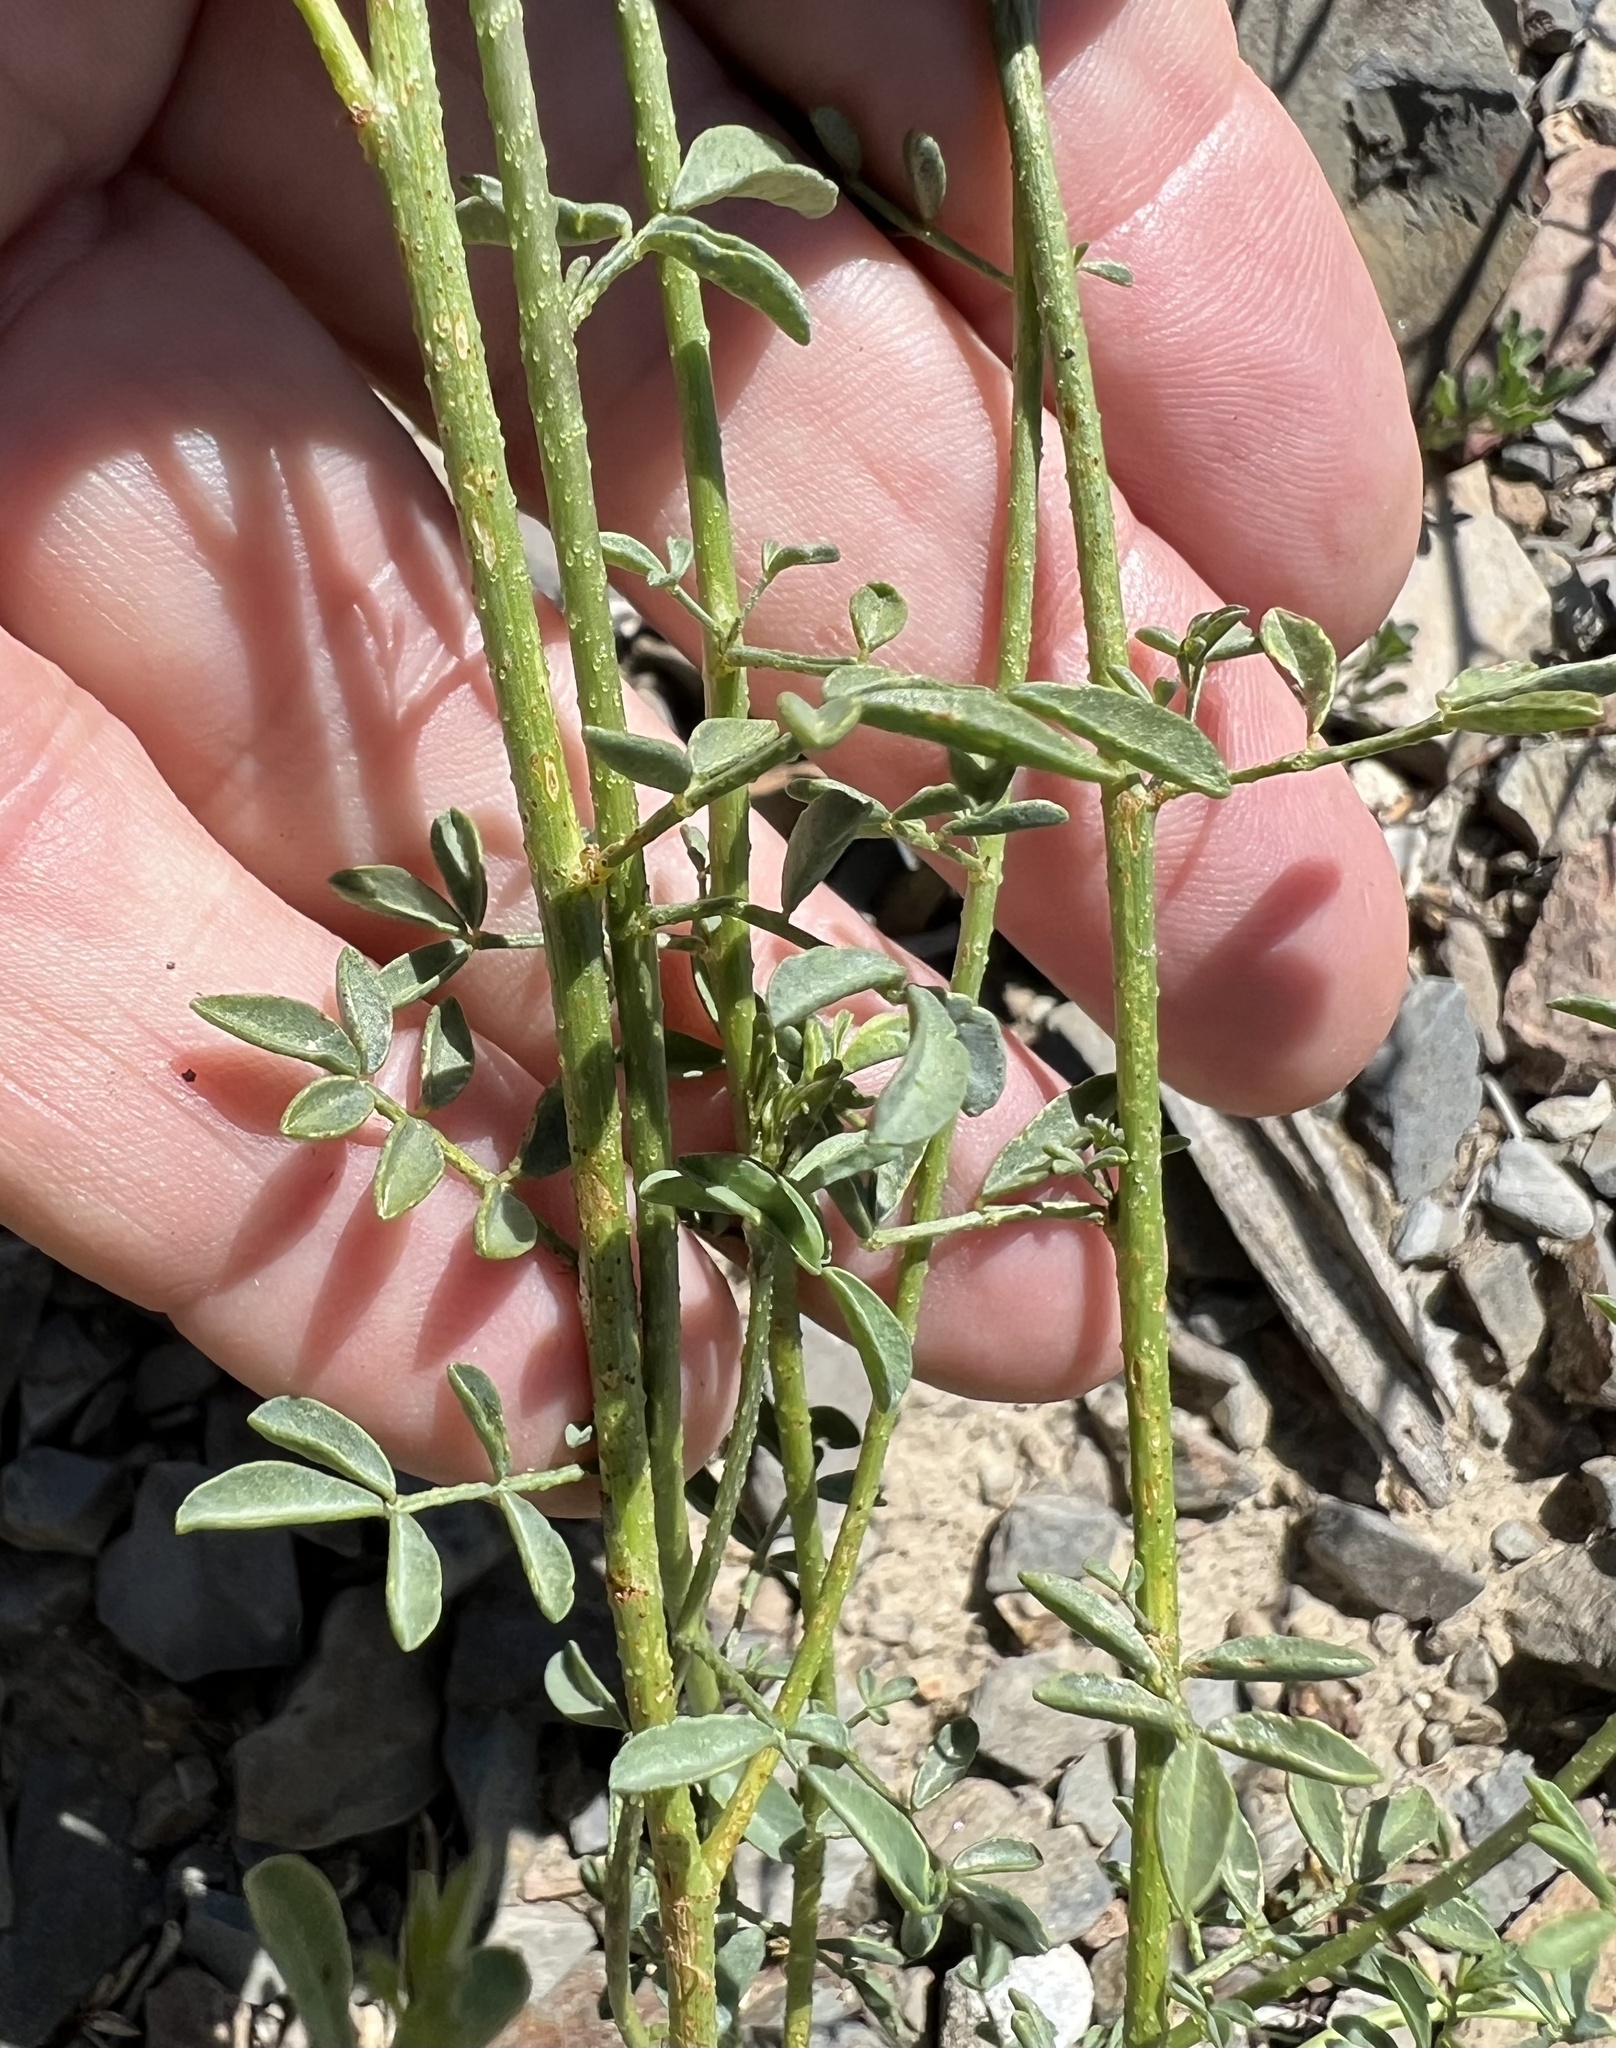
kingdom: Plantae
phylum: Tracheophyta
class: Magnoliopsida
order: Fabales
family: Fabaceae
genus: Dalea
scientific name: Dalea searlsiae
